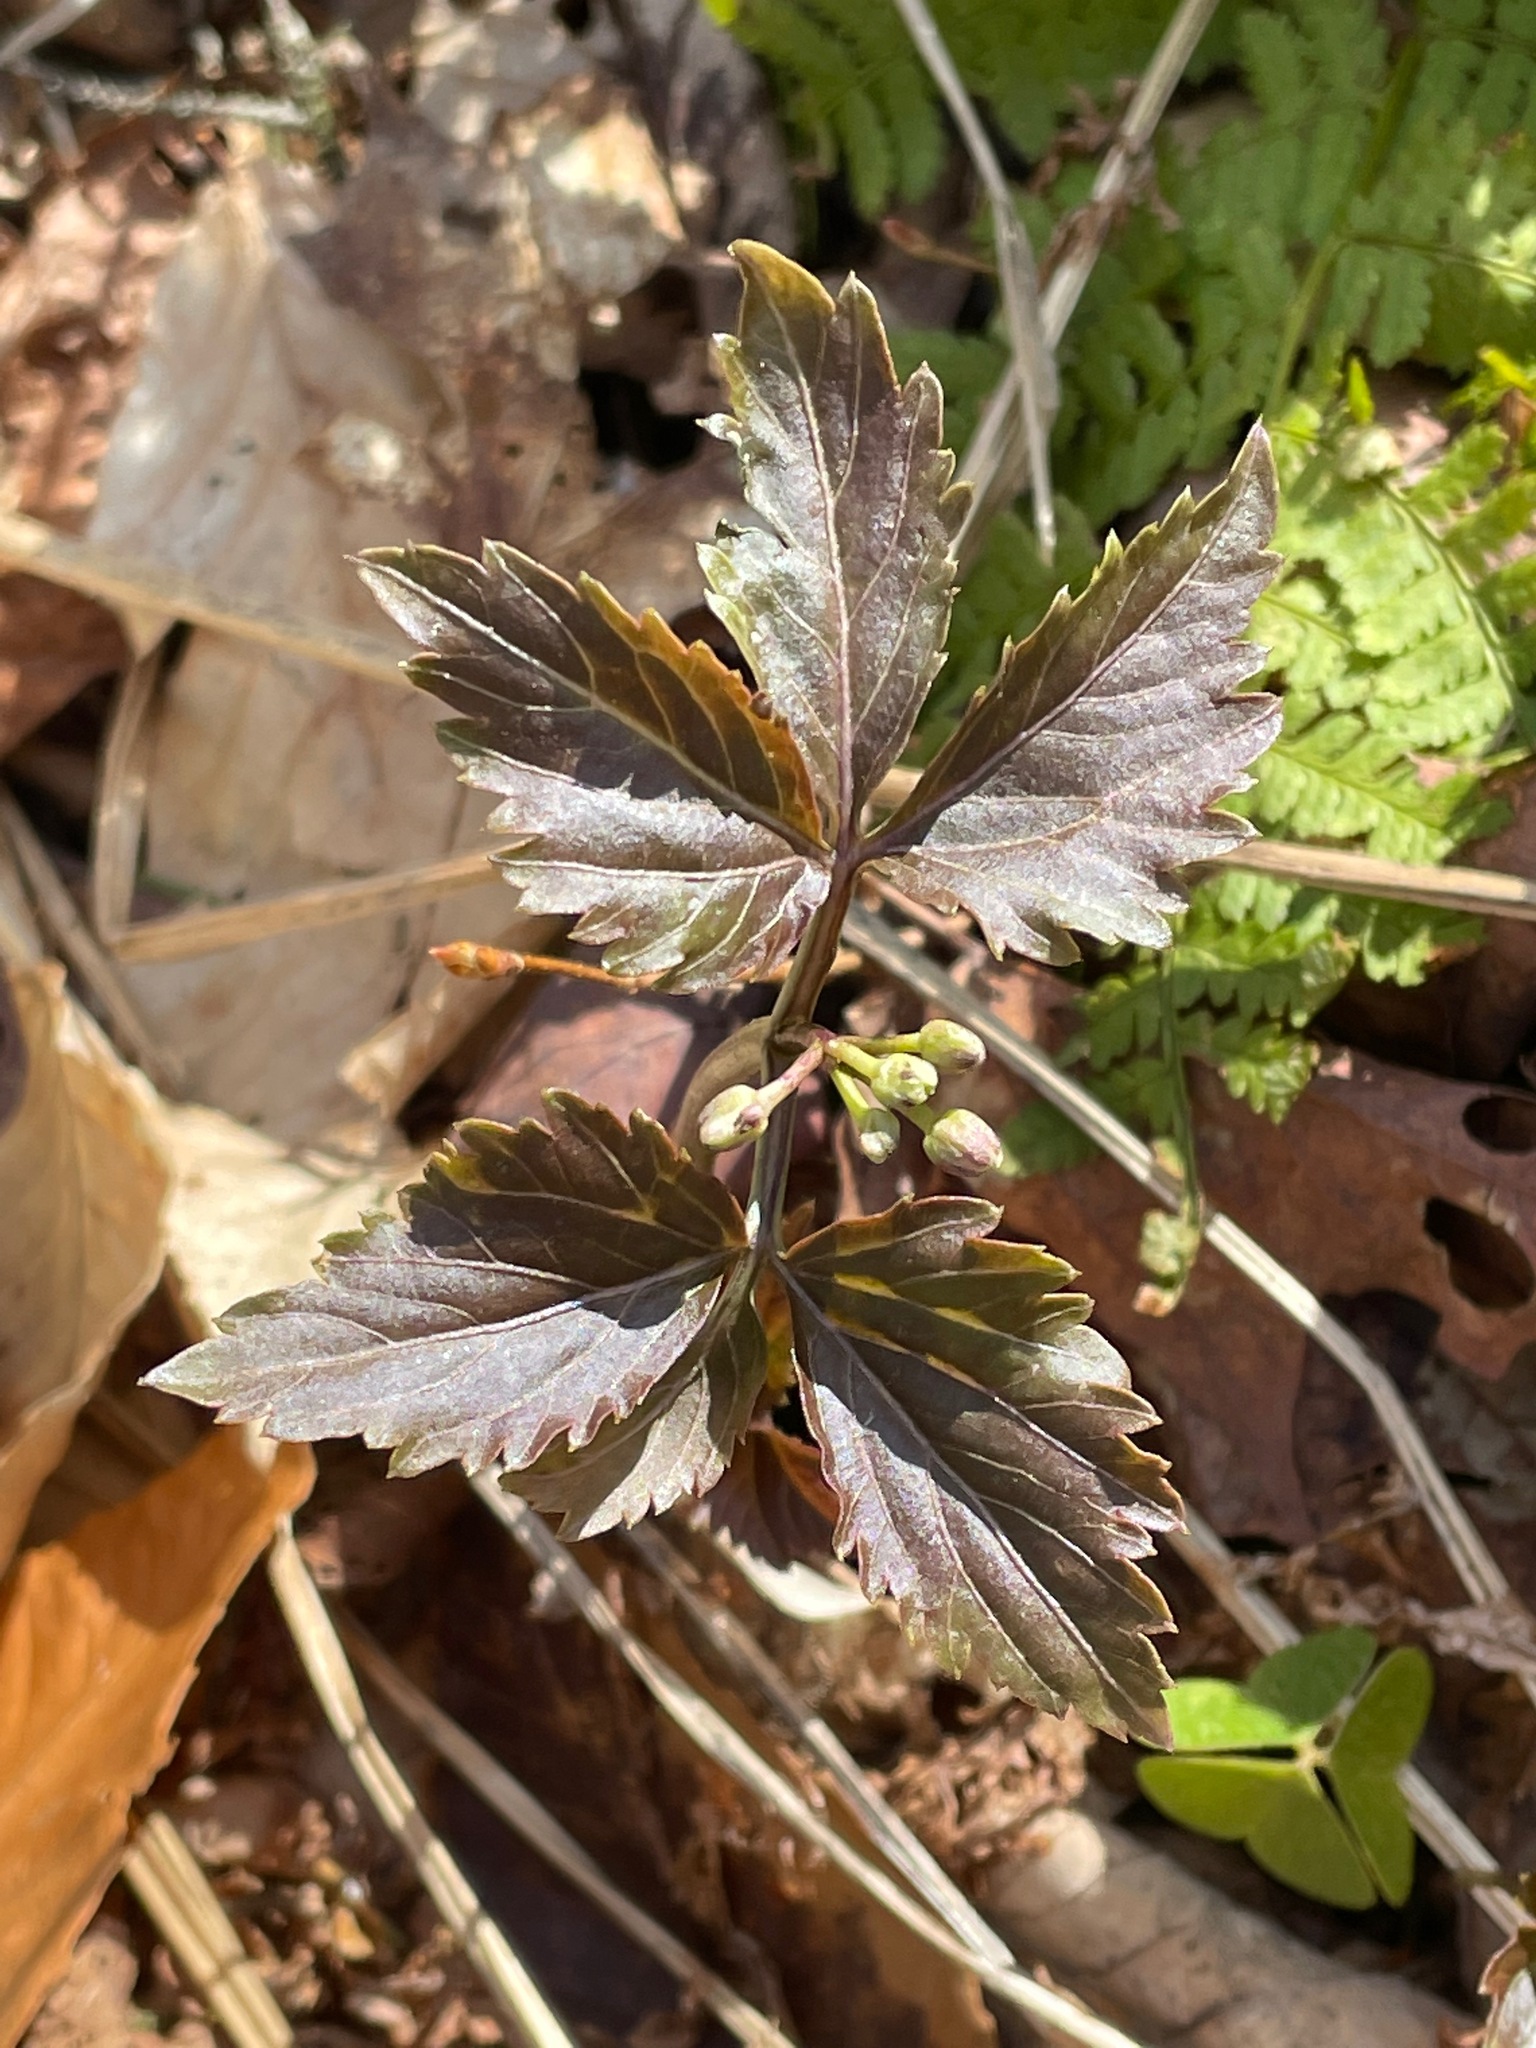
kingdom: Plantae
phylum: Tracheophyta
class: Magnoliopsida
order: Brassicales
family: Brassicaceae
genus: Cardamine
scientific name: Cardamine diphylla
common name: Broad-leaved toothwort
